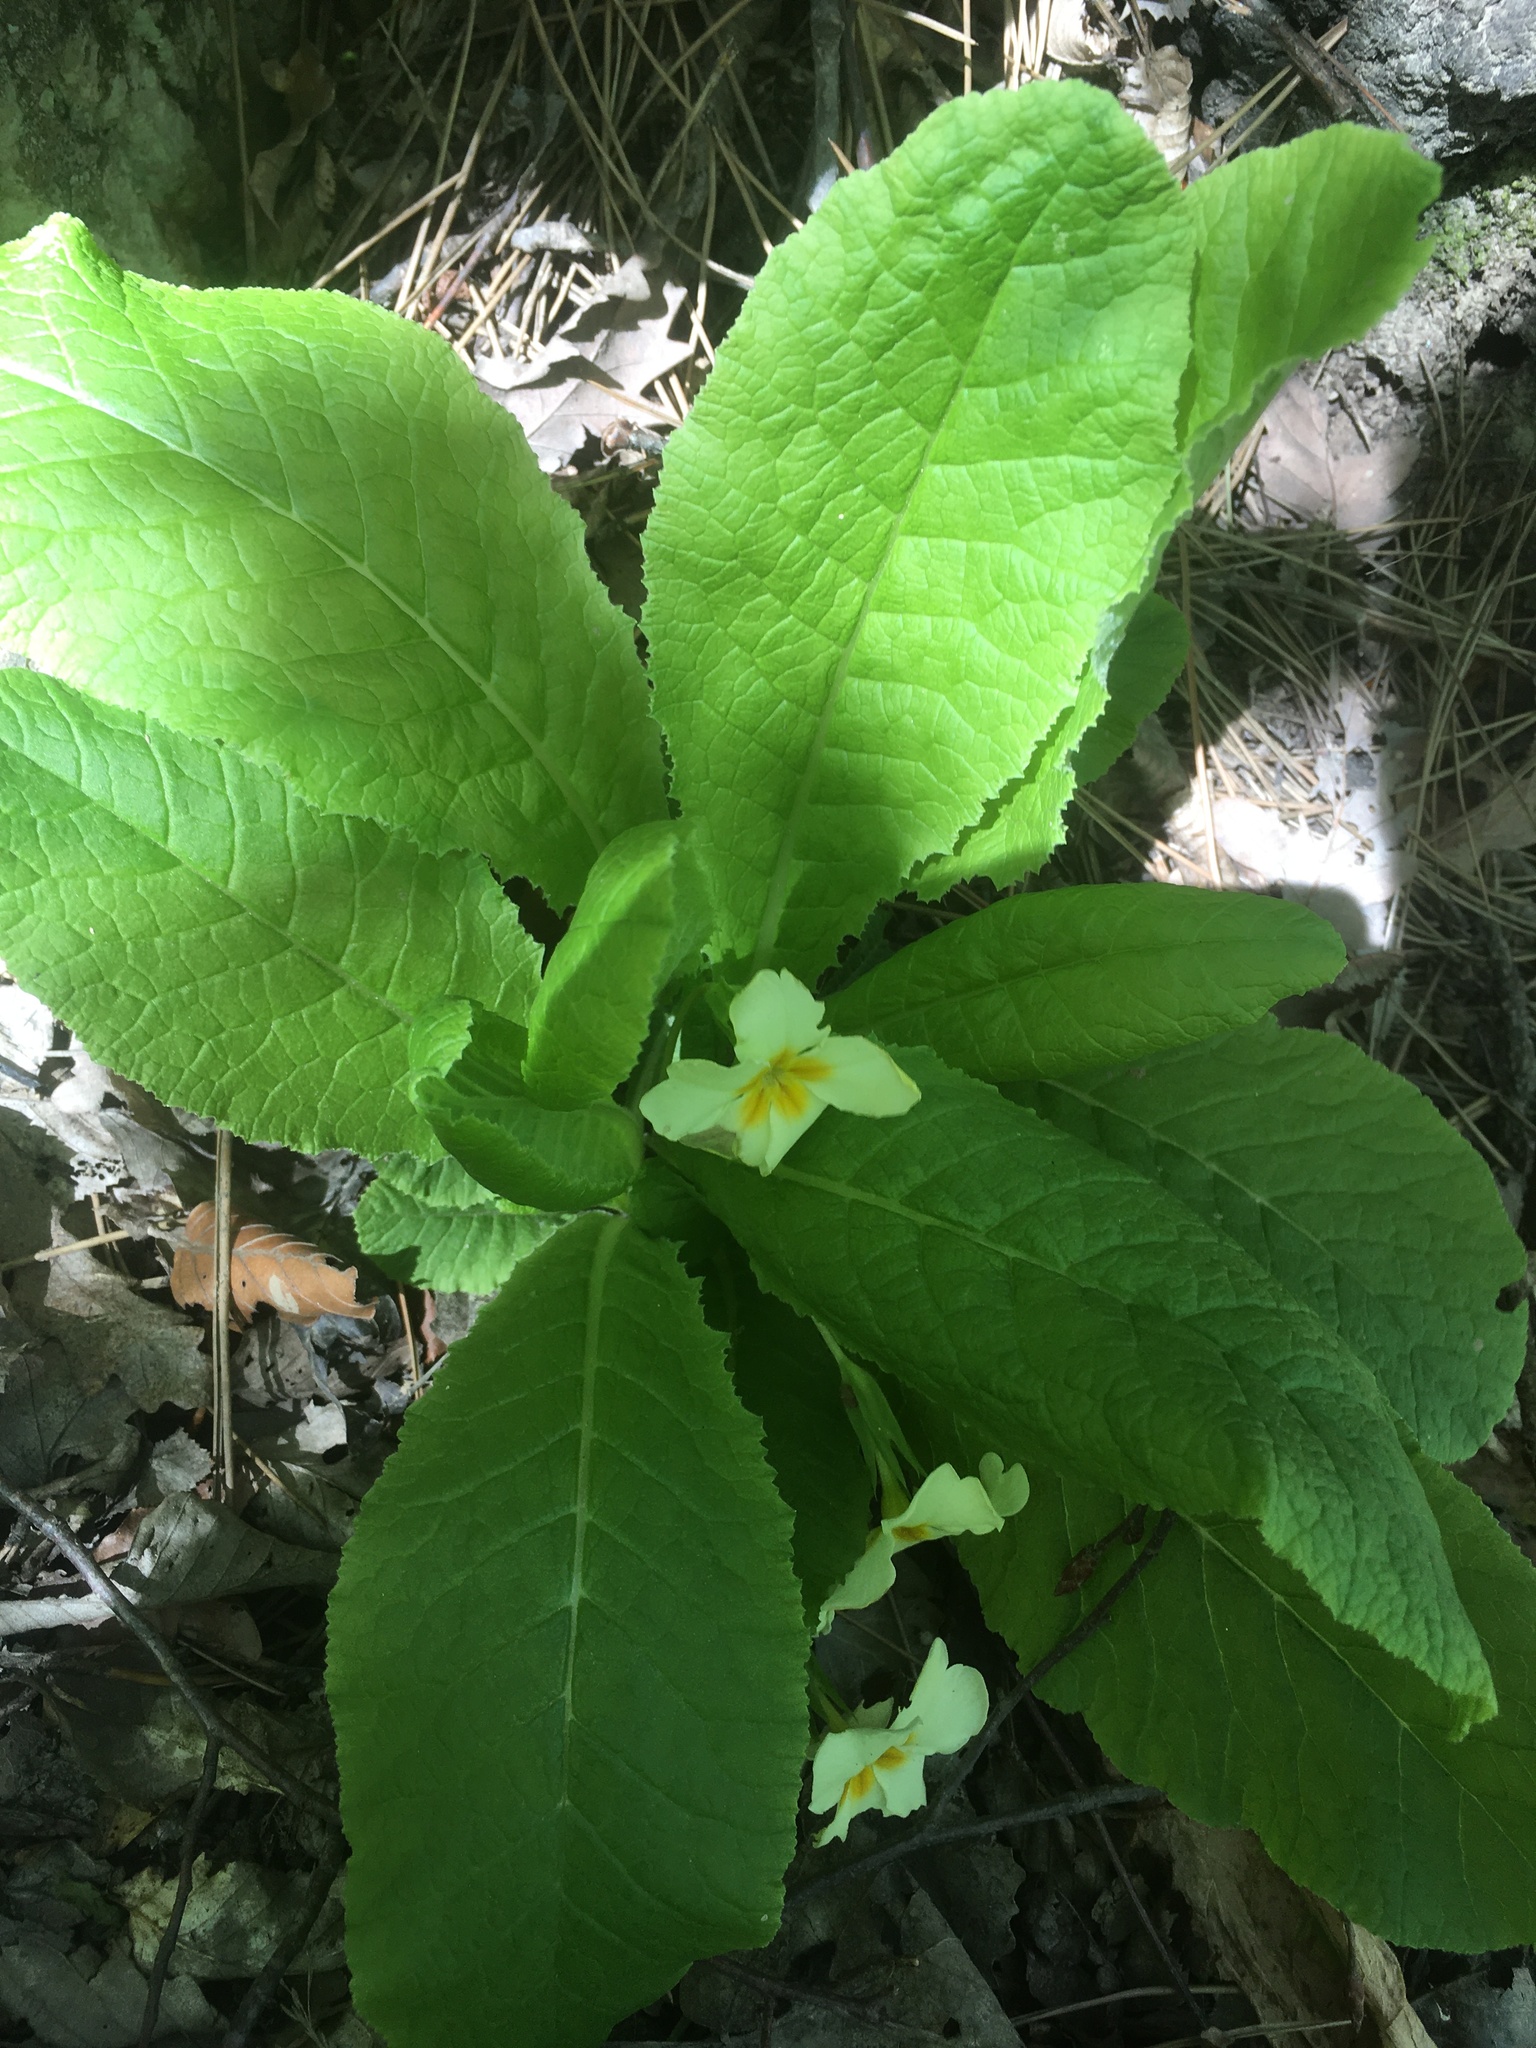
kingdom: Plantae
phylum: Tracheophyta
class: Magnoliopsida
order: Ericales
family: Primulaceae
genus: Primula
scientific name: Primula vulgaris
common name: Primrose
